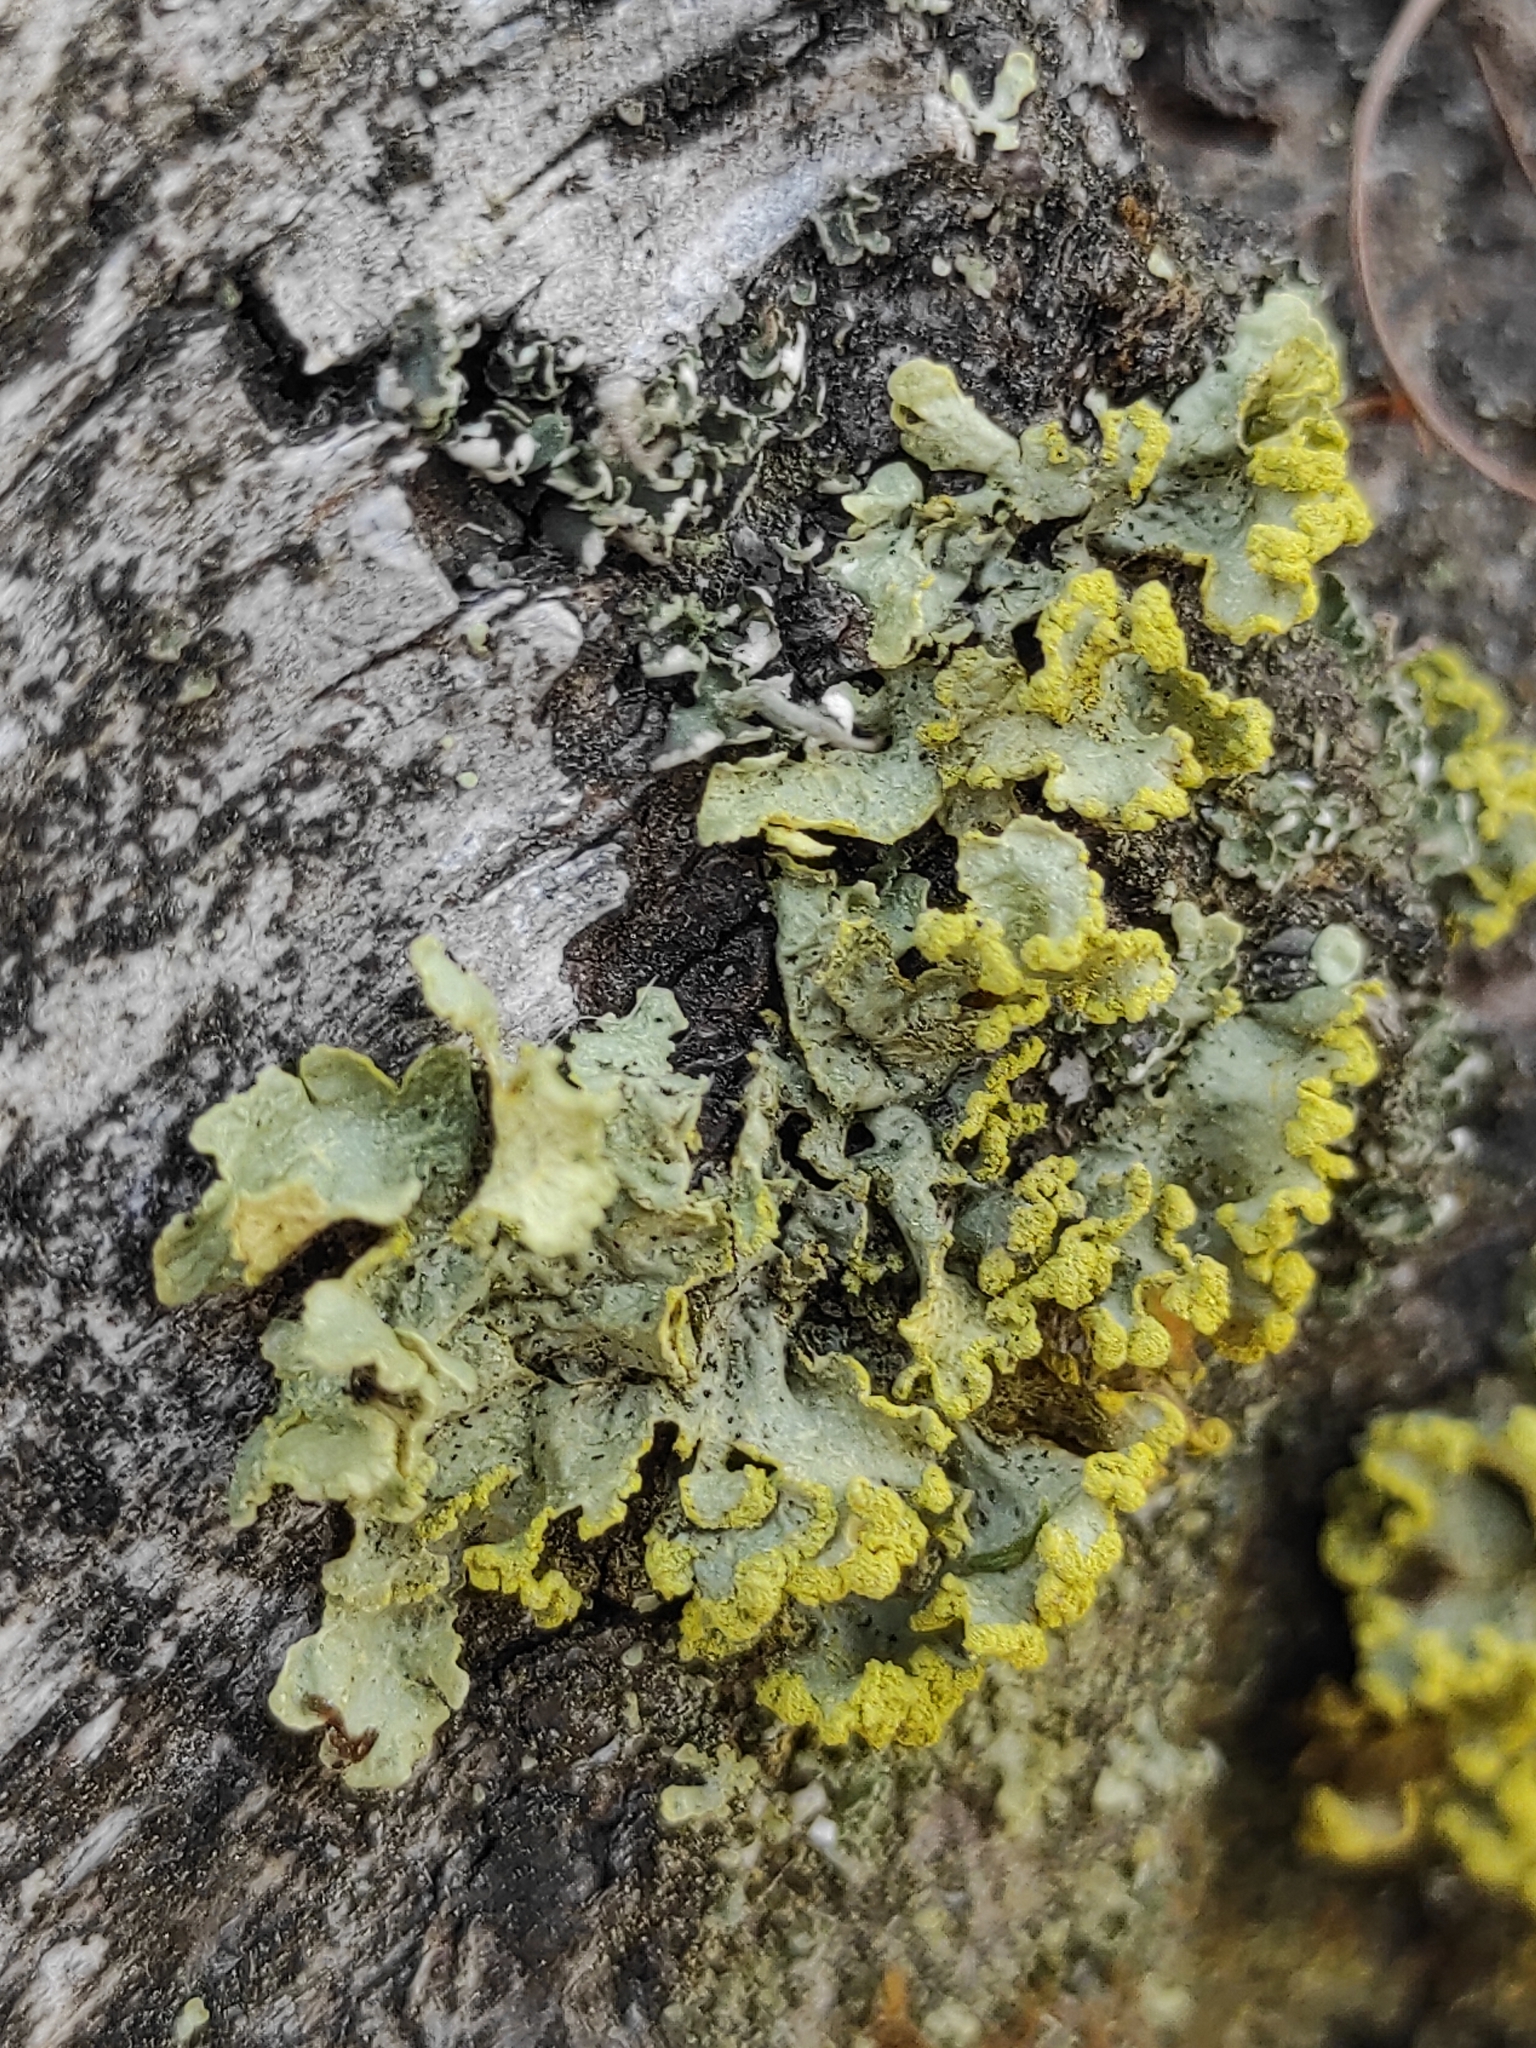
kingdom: Fungi
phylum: Ascomycota
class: Lecanoromycetes
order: Lecanorales
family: Parmeliaceae
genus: Vulpicida
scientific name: Vulpicida pinastri
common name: Powdered sunshine lichen
